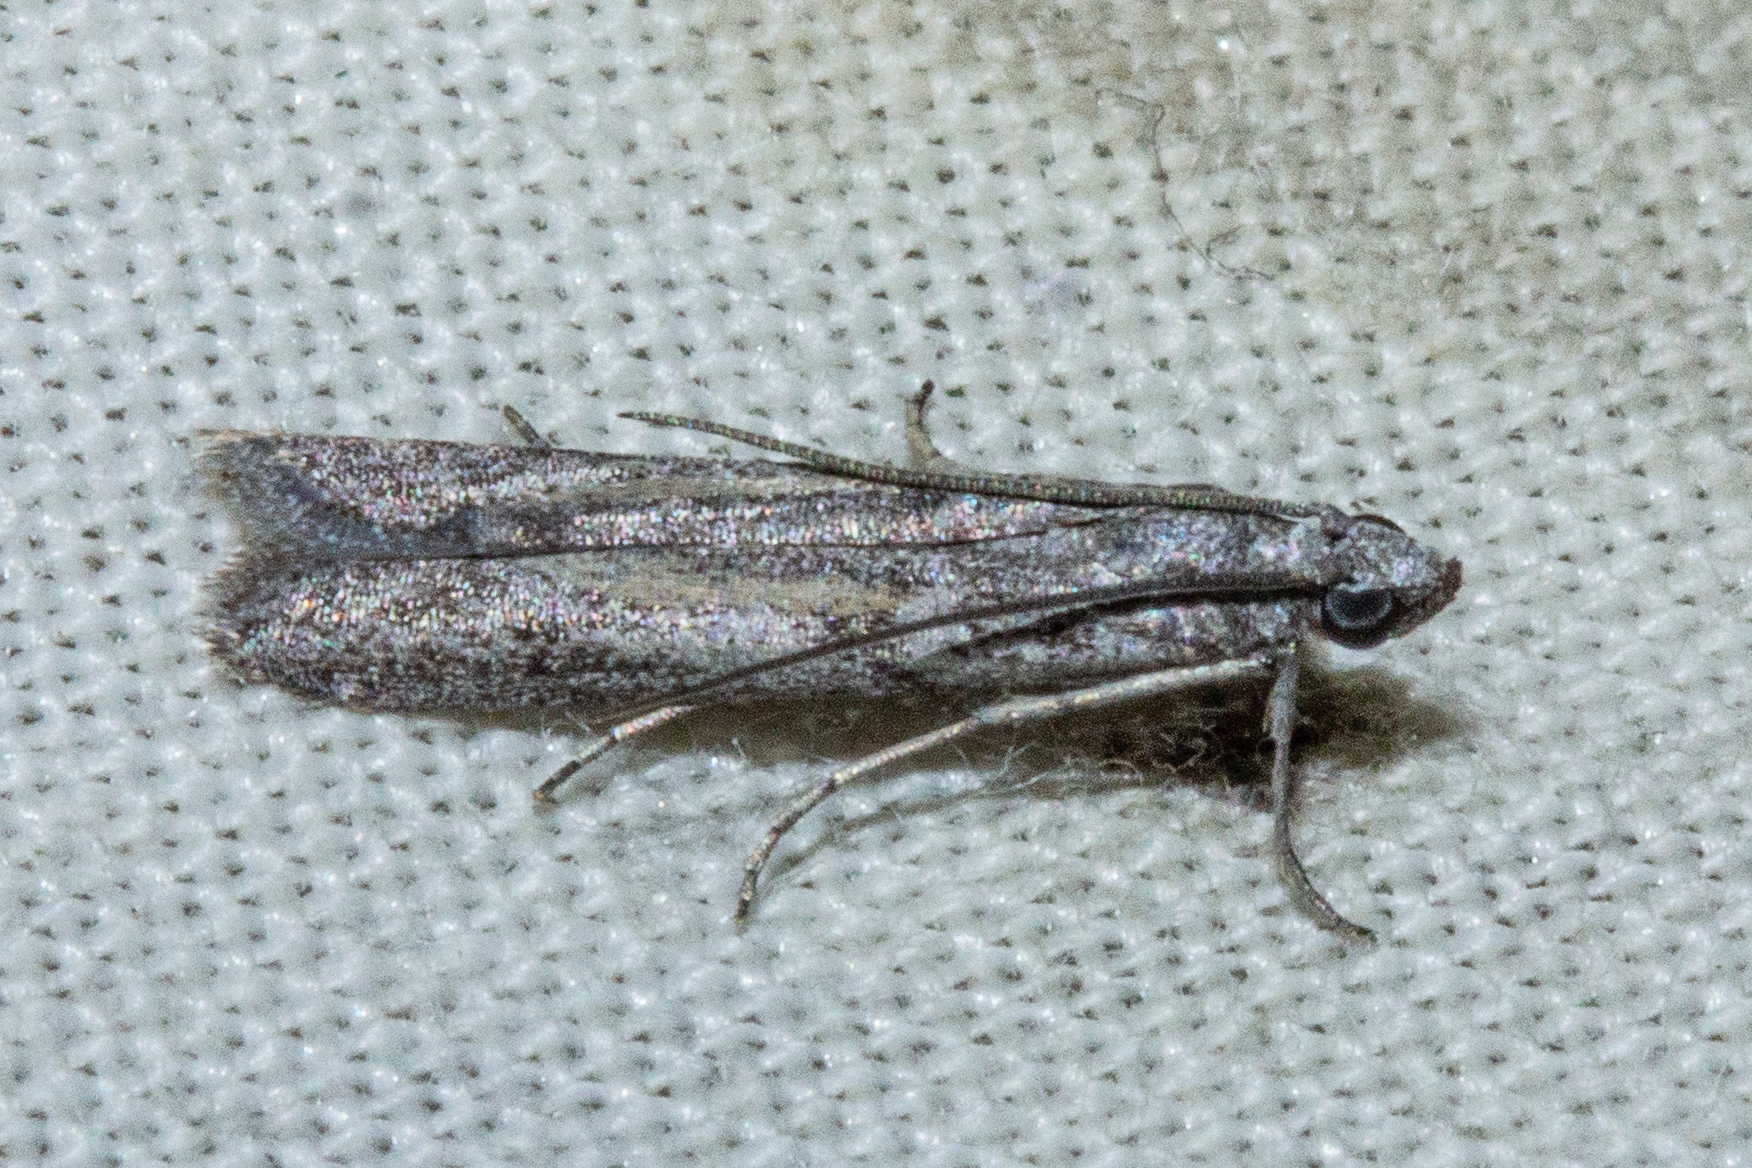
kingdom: Animalia
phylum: Arthropoda
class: Insecta
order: Lepidoptera
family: Pyralidae
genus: Homoeosoma
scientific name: Homoeosoma anaspila
